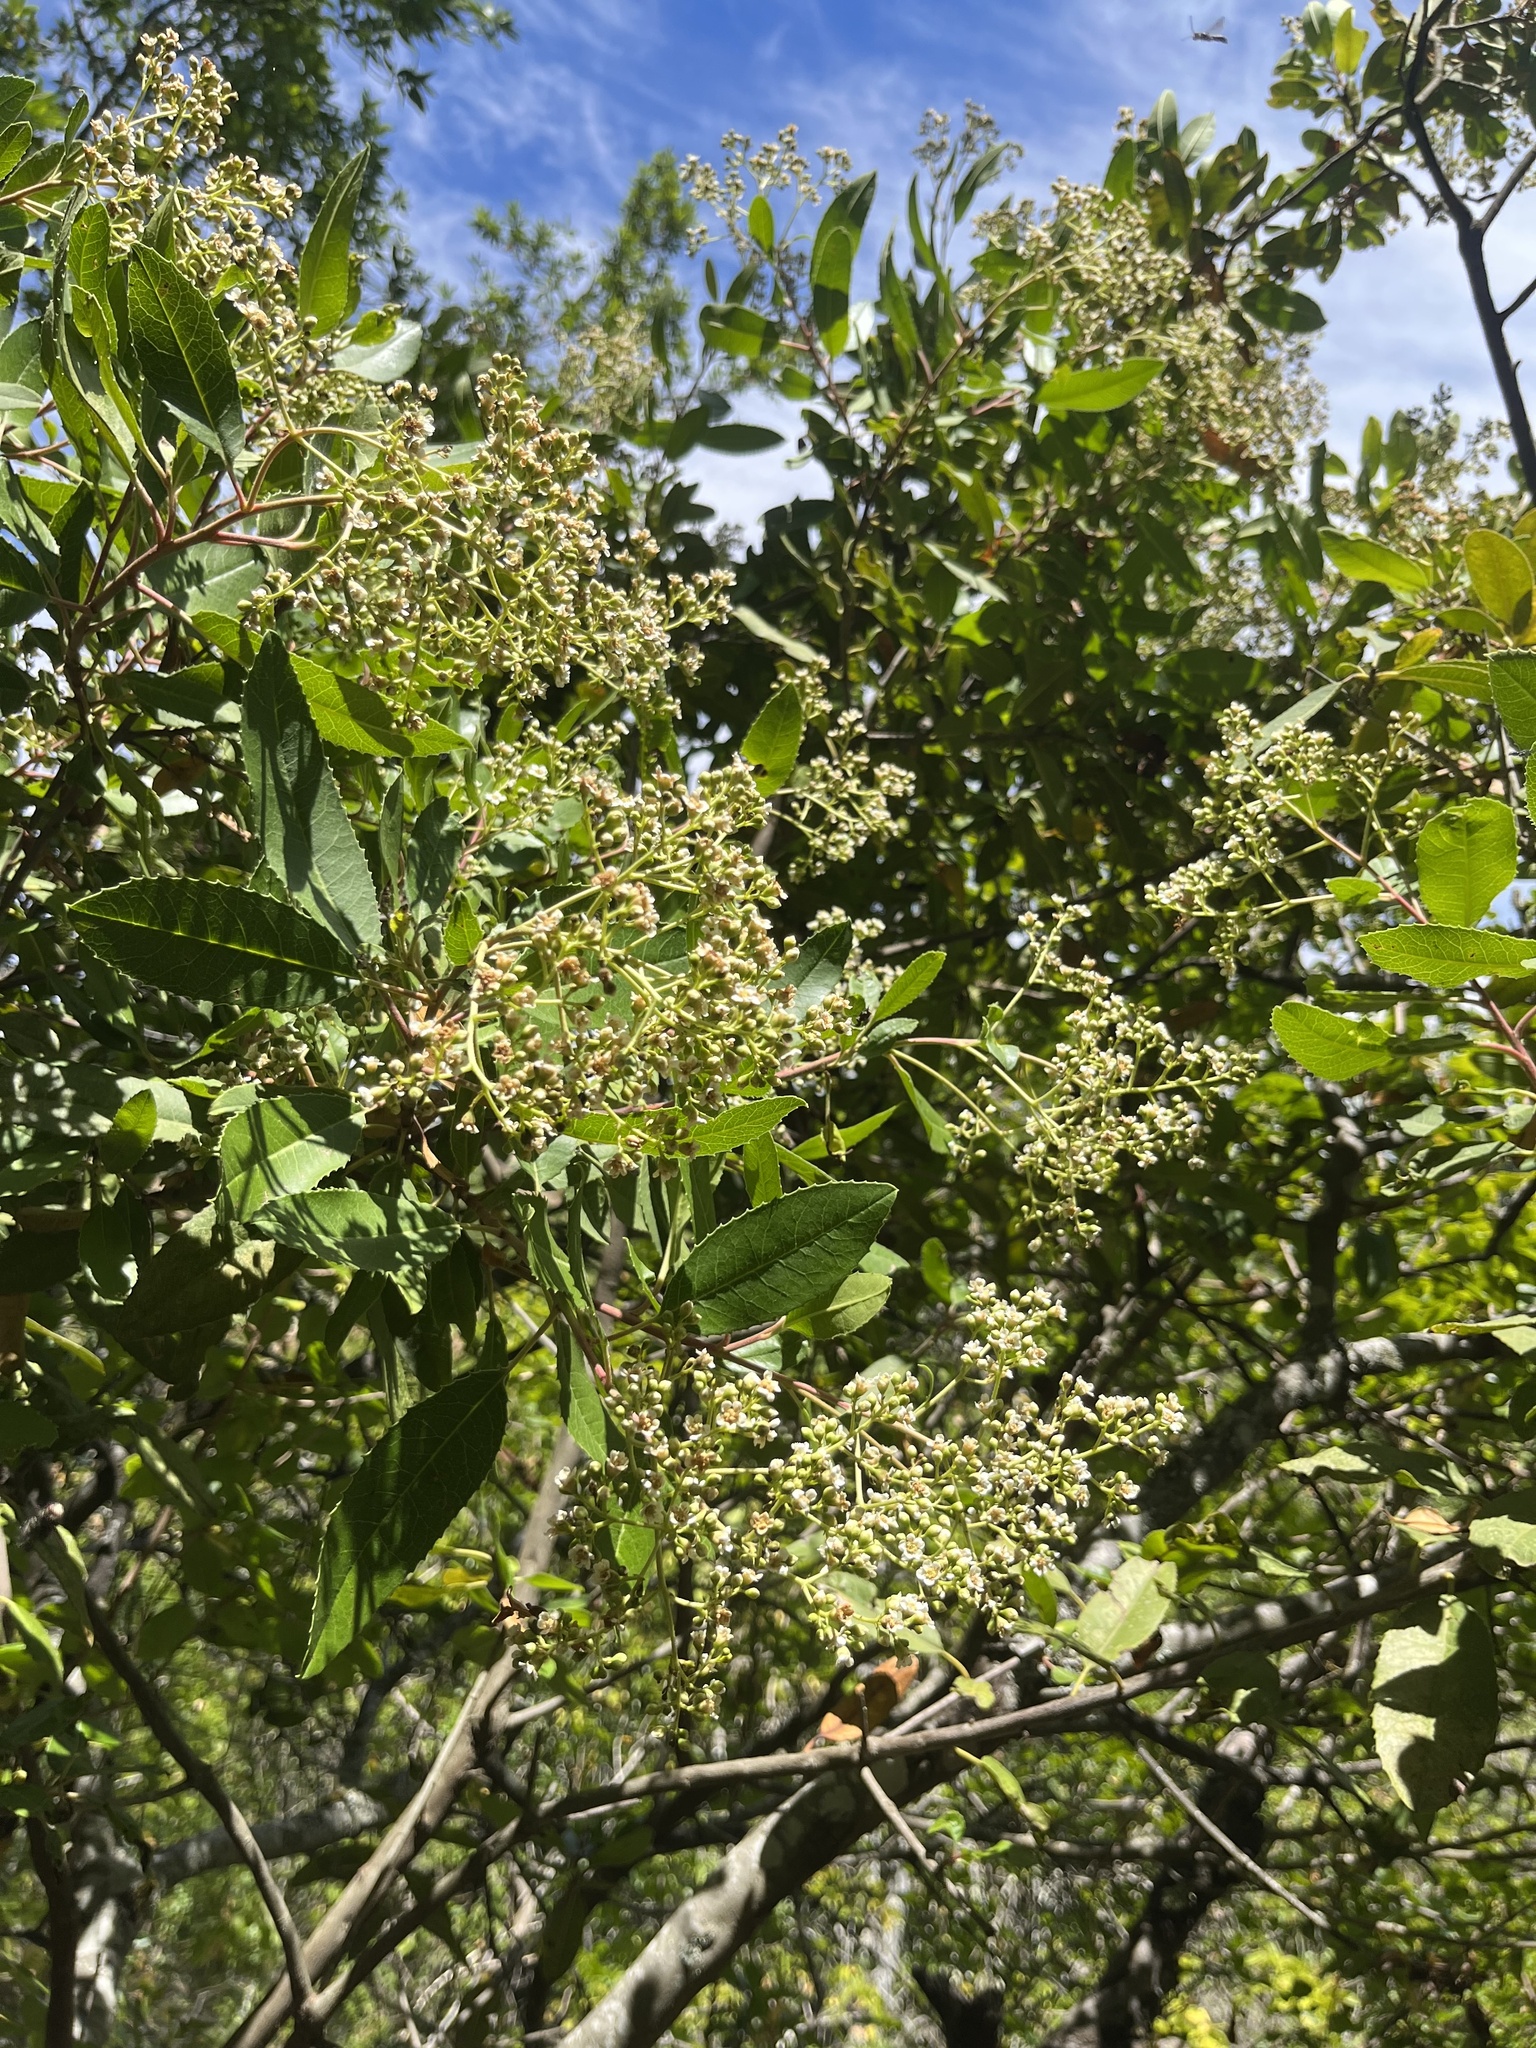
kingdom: Plantae
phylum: Tracheophyta
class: Magnoliopsida
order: Rosales
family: Rosaceae
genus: Heteromeles
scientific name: Heteromeles arbutifolia
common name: California-holly
